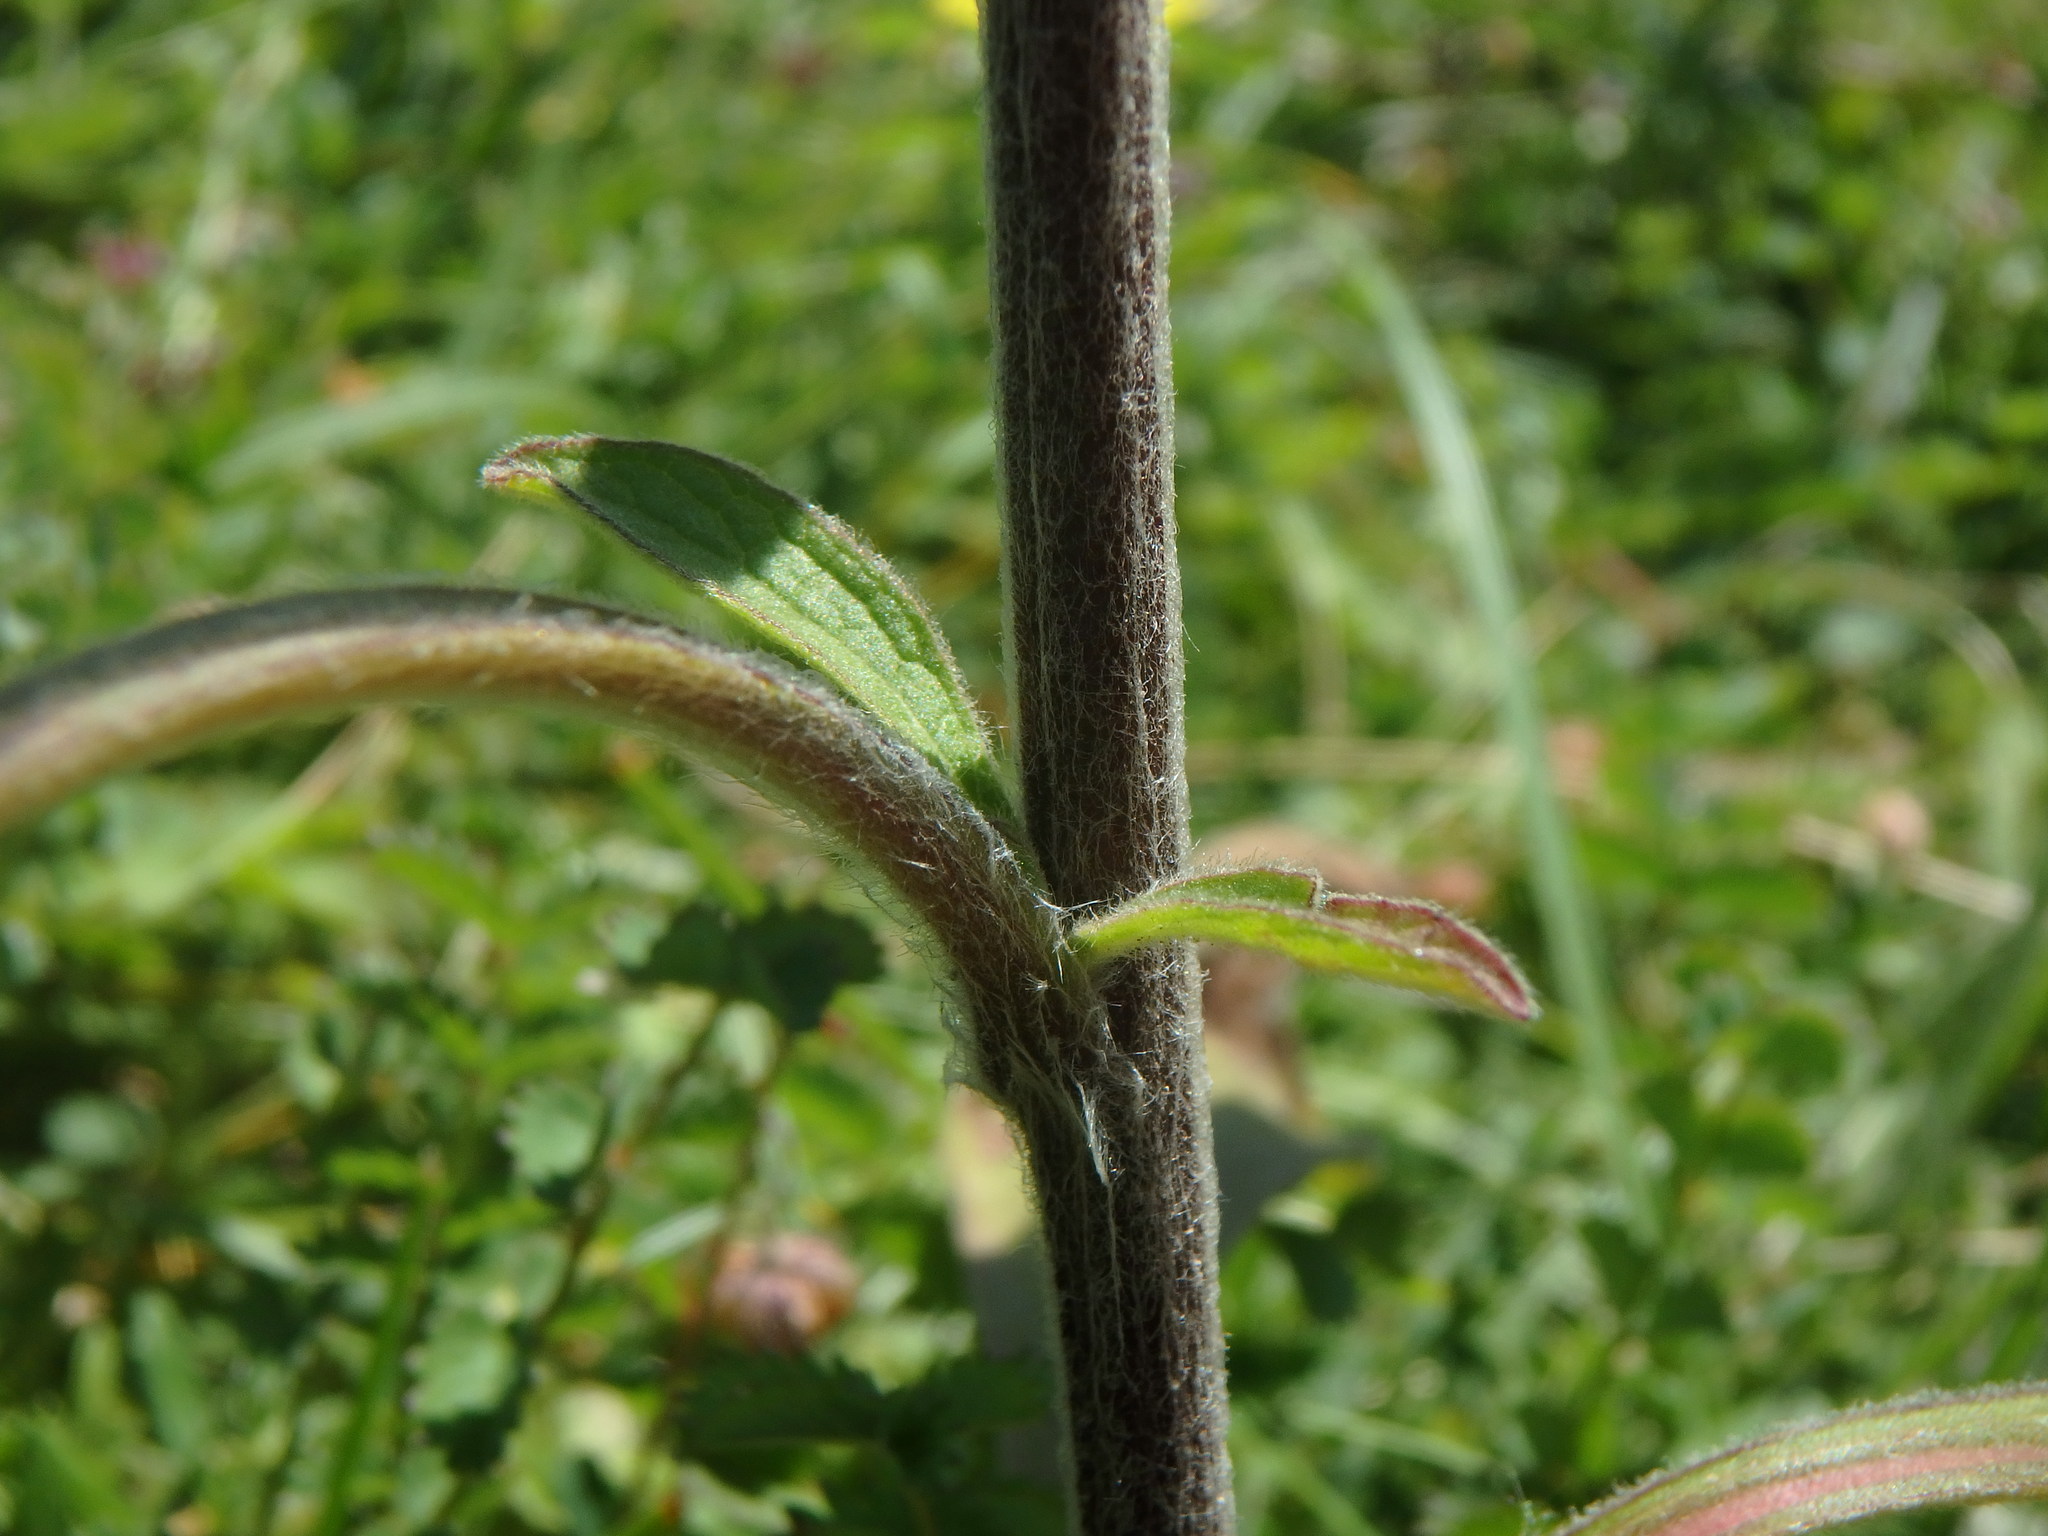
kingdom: Plantae
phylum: Tracheophyta
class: Magnoliopsida
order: Asterales
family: Asteraceae
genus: Pentanema
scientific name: Pentanema squarrosum
